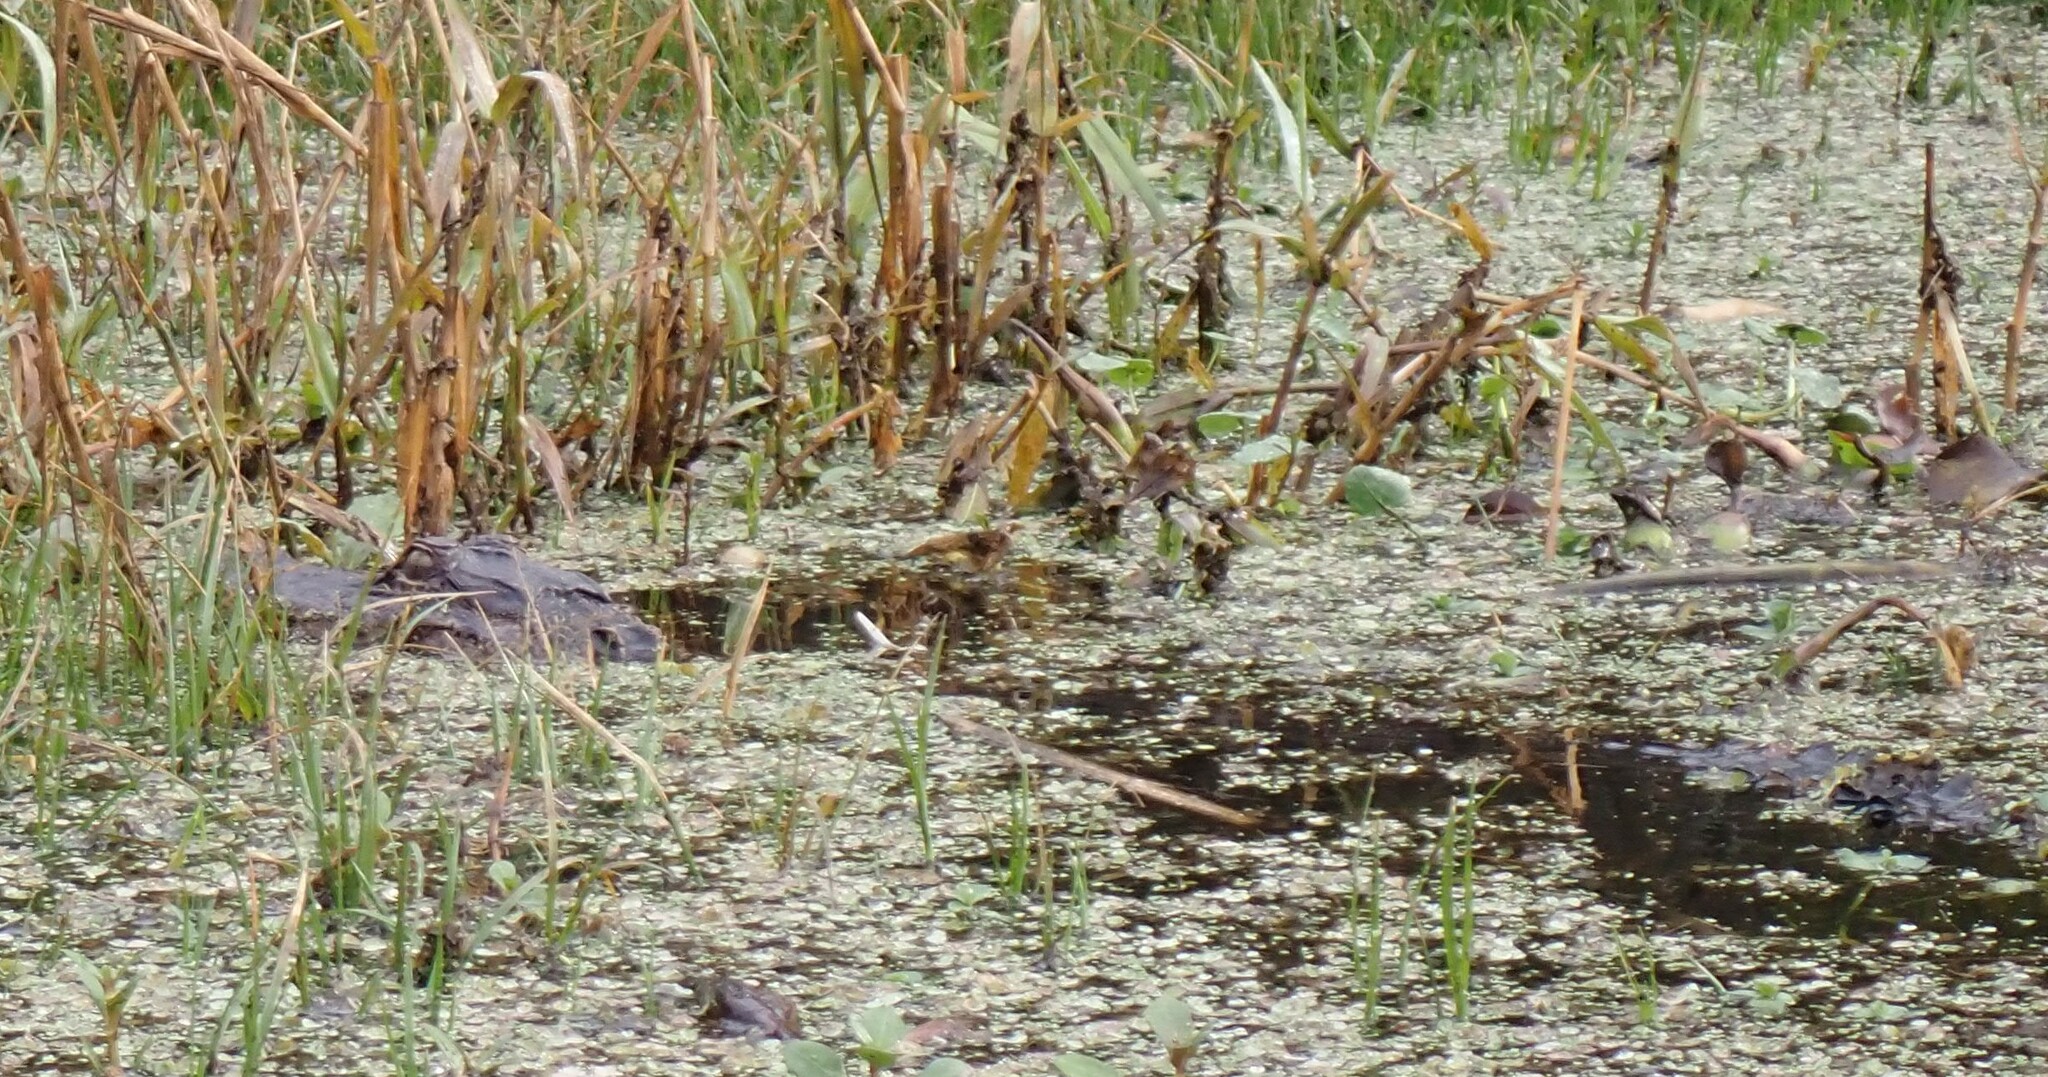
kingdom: Animalia
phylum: Chordata
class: Crocodylia
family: Alligatoridae
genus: Alligator
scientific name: Alligator mississippiensis
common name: American alligator
